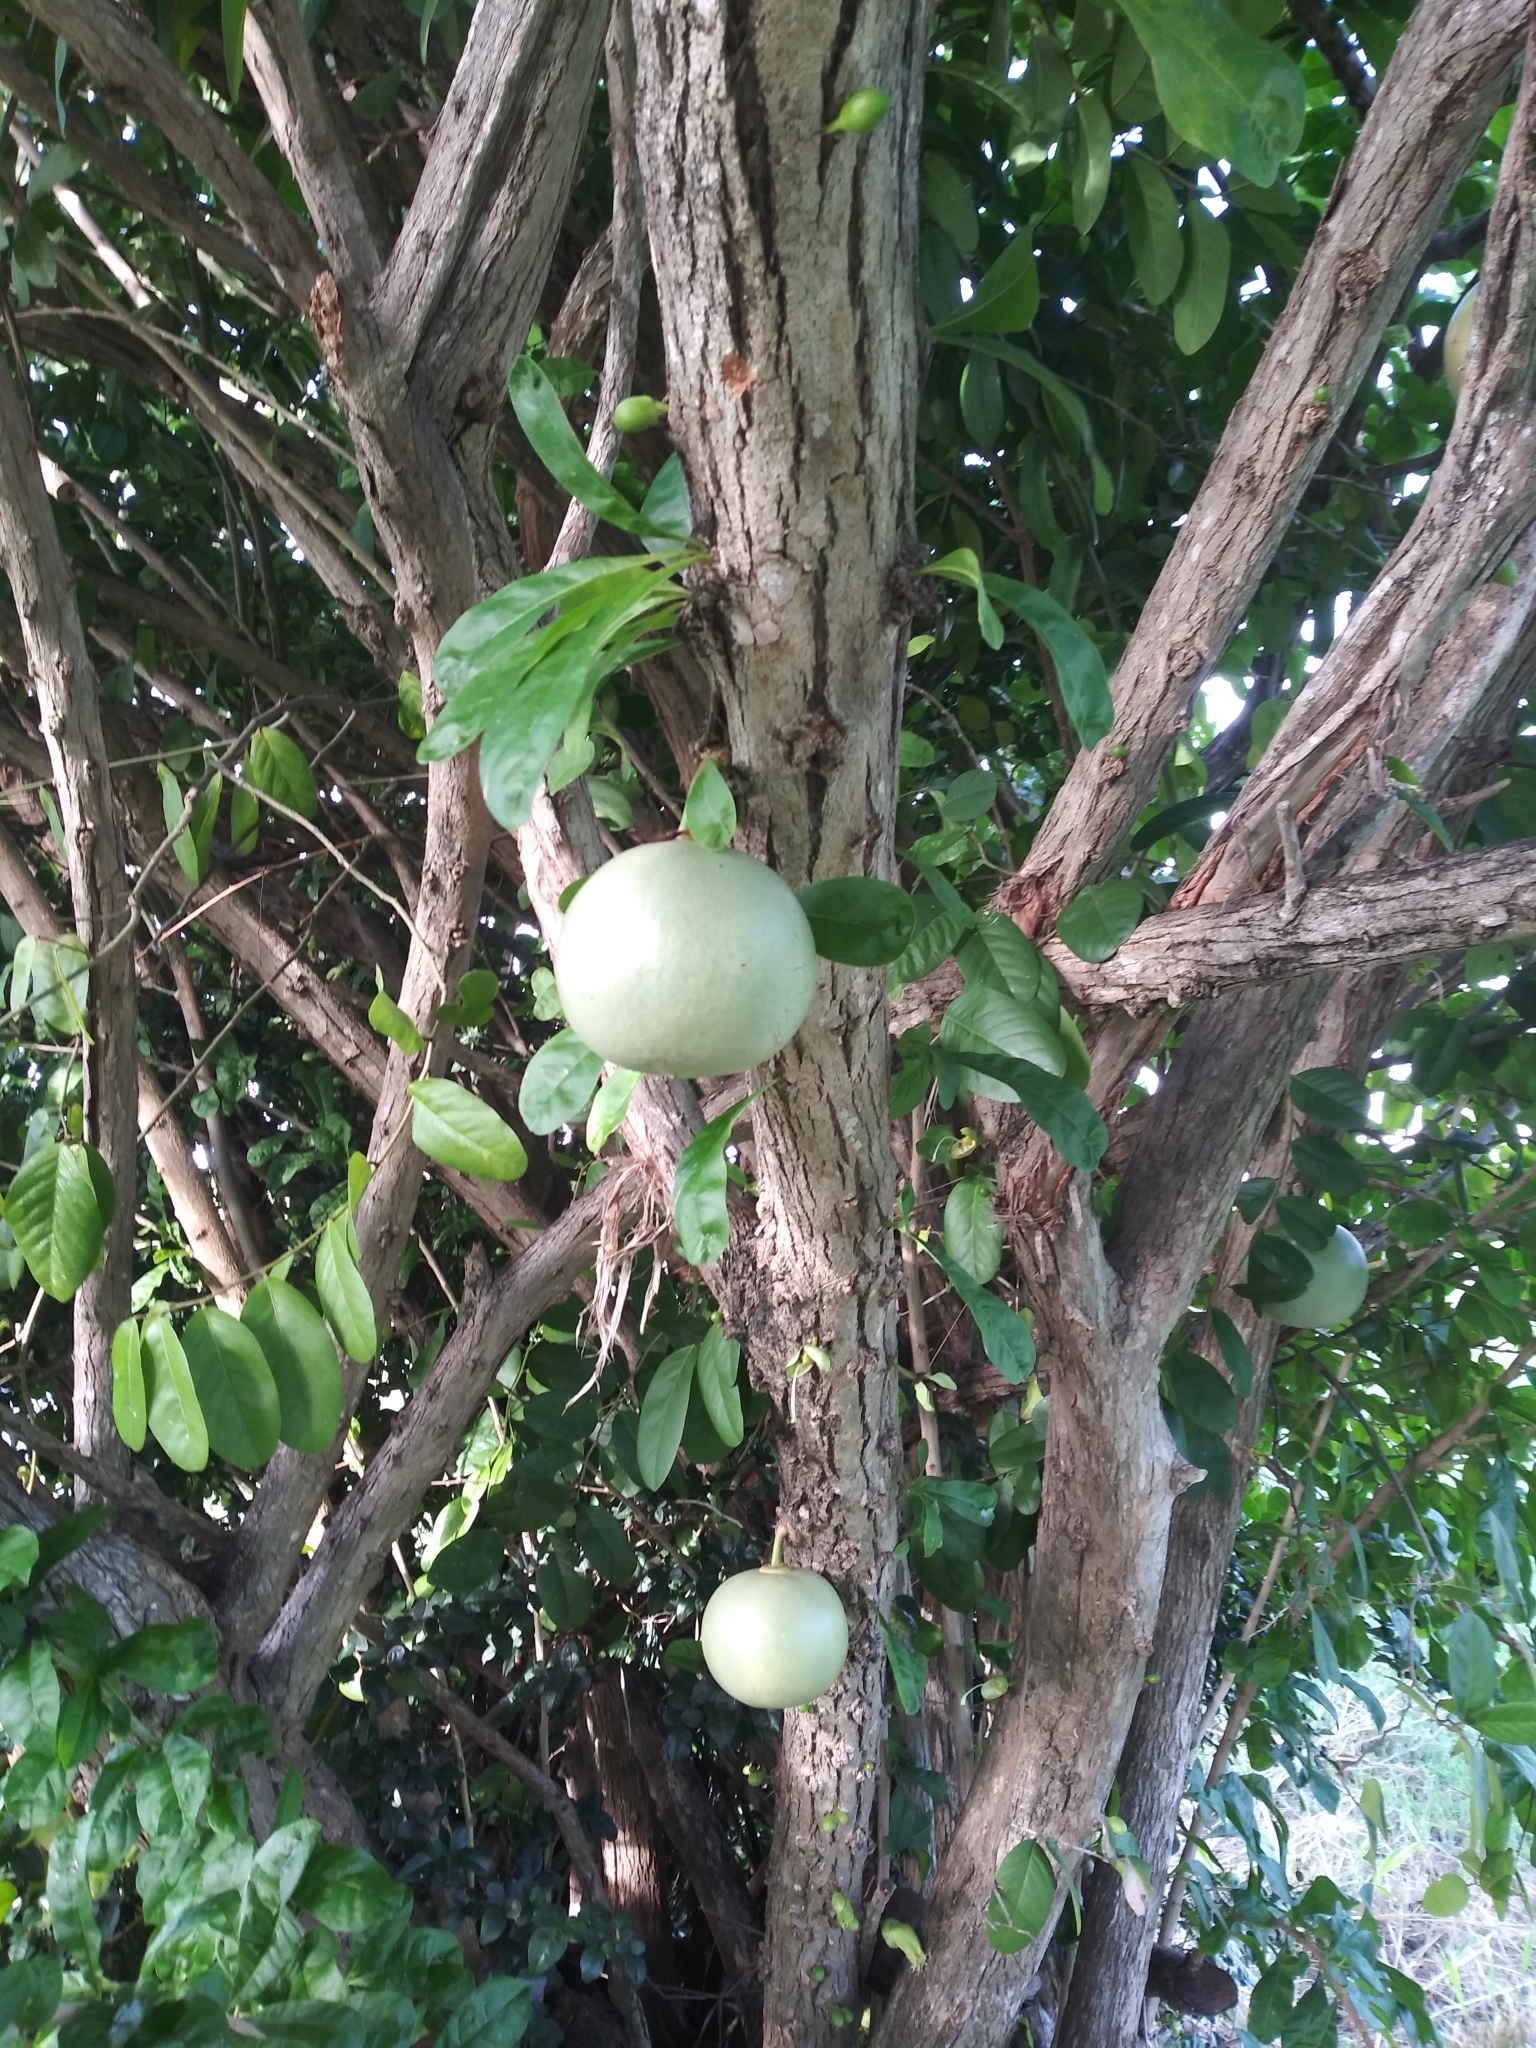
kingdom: Plantae
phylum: Tracheophyta
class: Magnoliopsida
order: Lamiales
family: Bignoniaceae
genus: Crescentia
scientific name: Crescentia cujete
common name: Calabash
